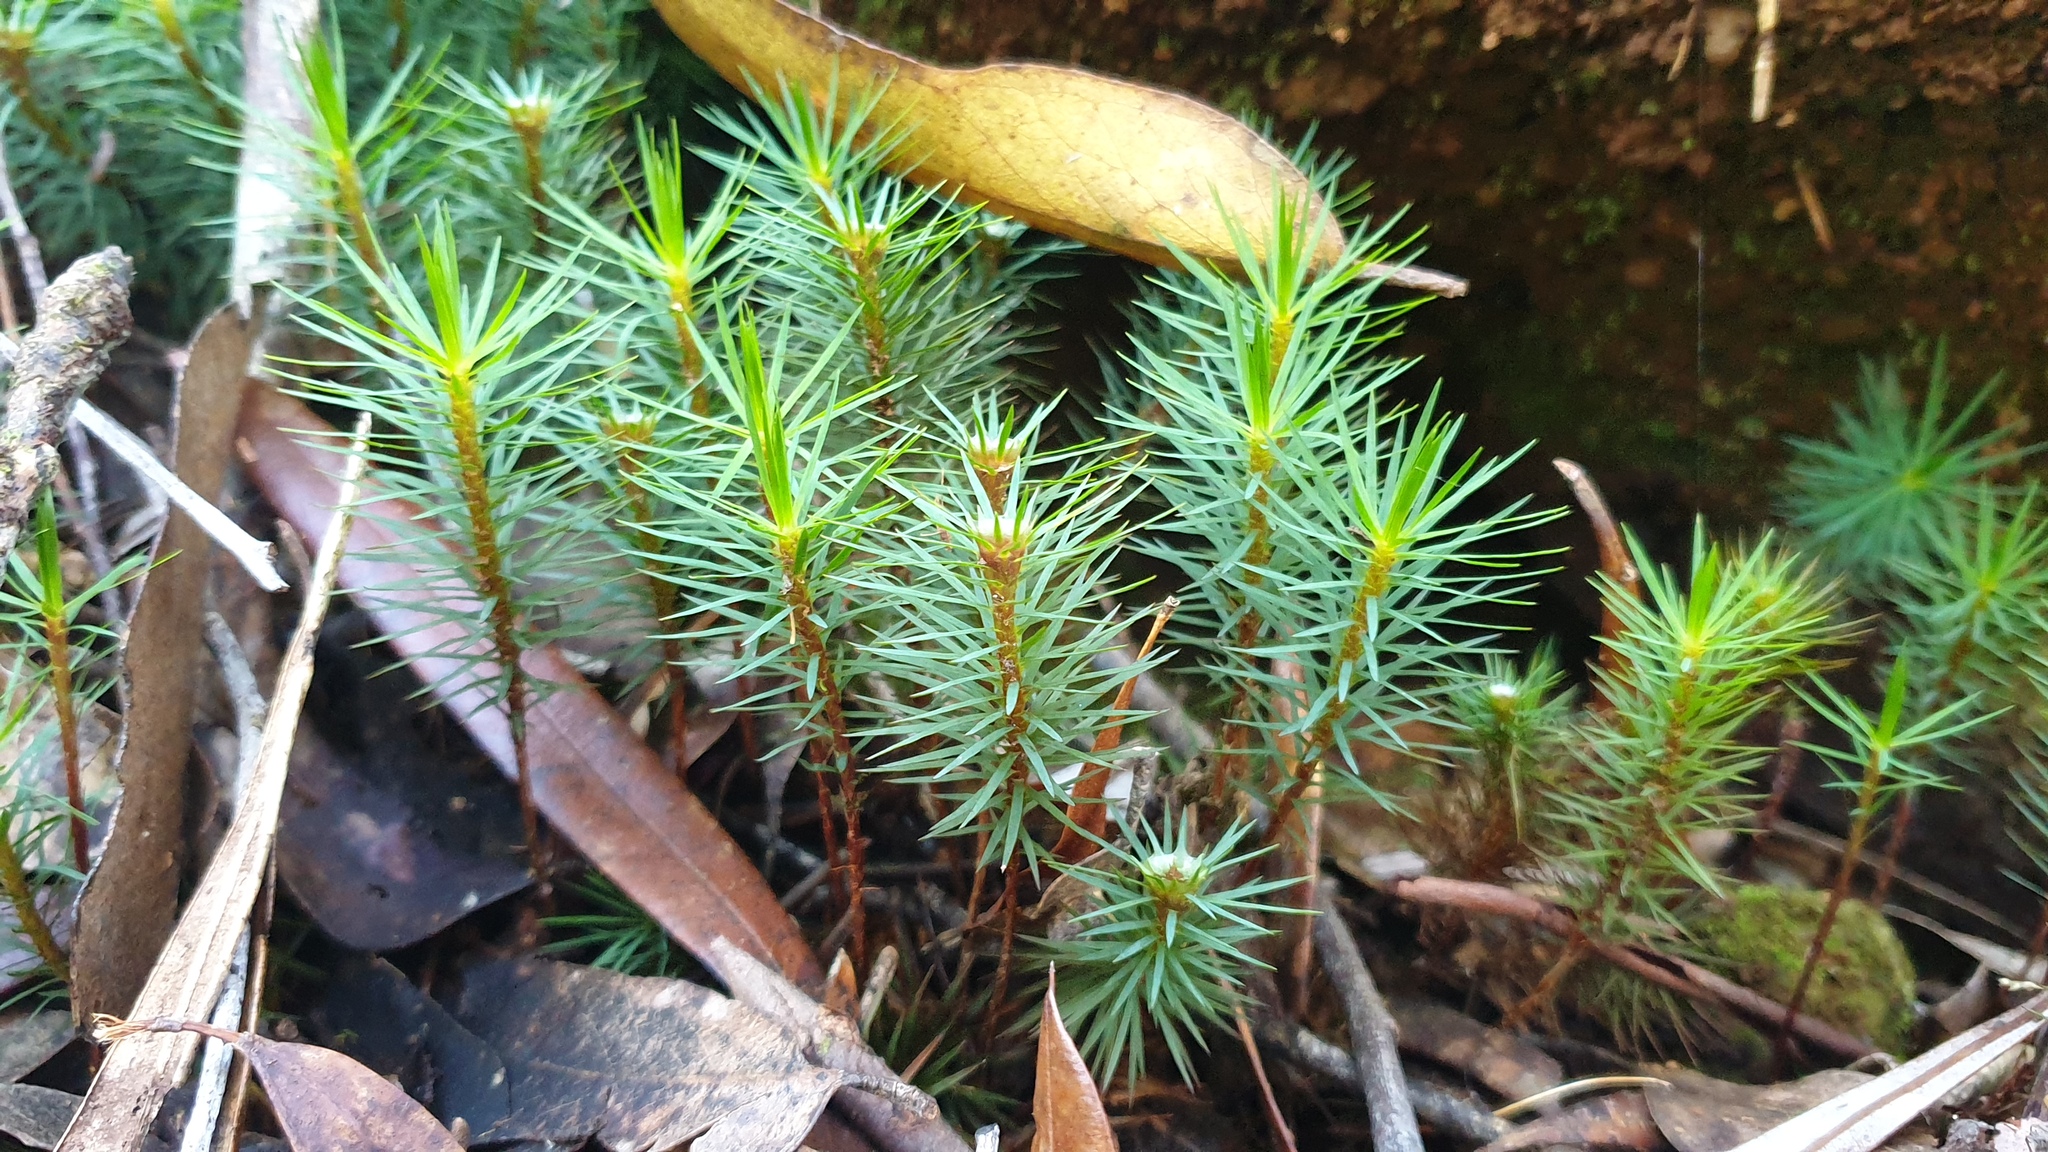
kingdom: Plantae
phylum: Bryophyta
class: Polytrichopsida
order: Polytrichales
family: Polytrichaceae
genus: Dawsonia
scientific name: Dawsonia superba
